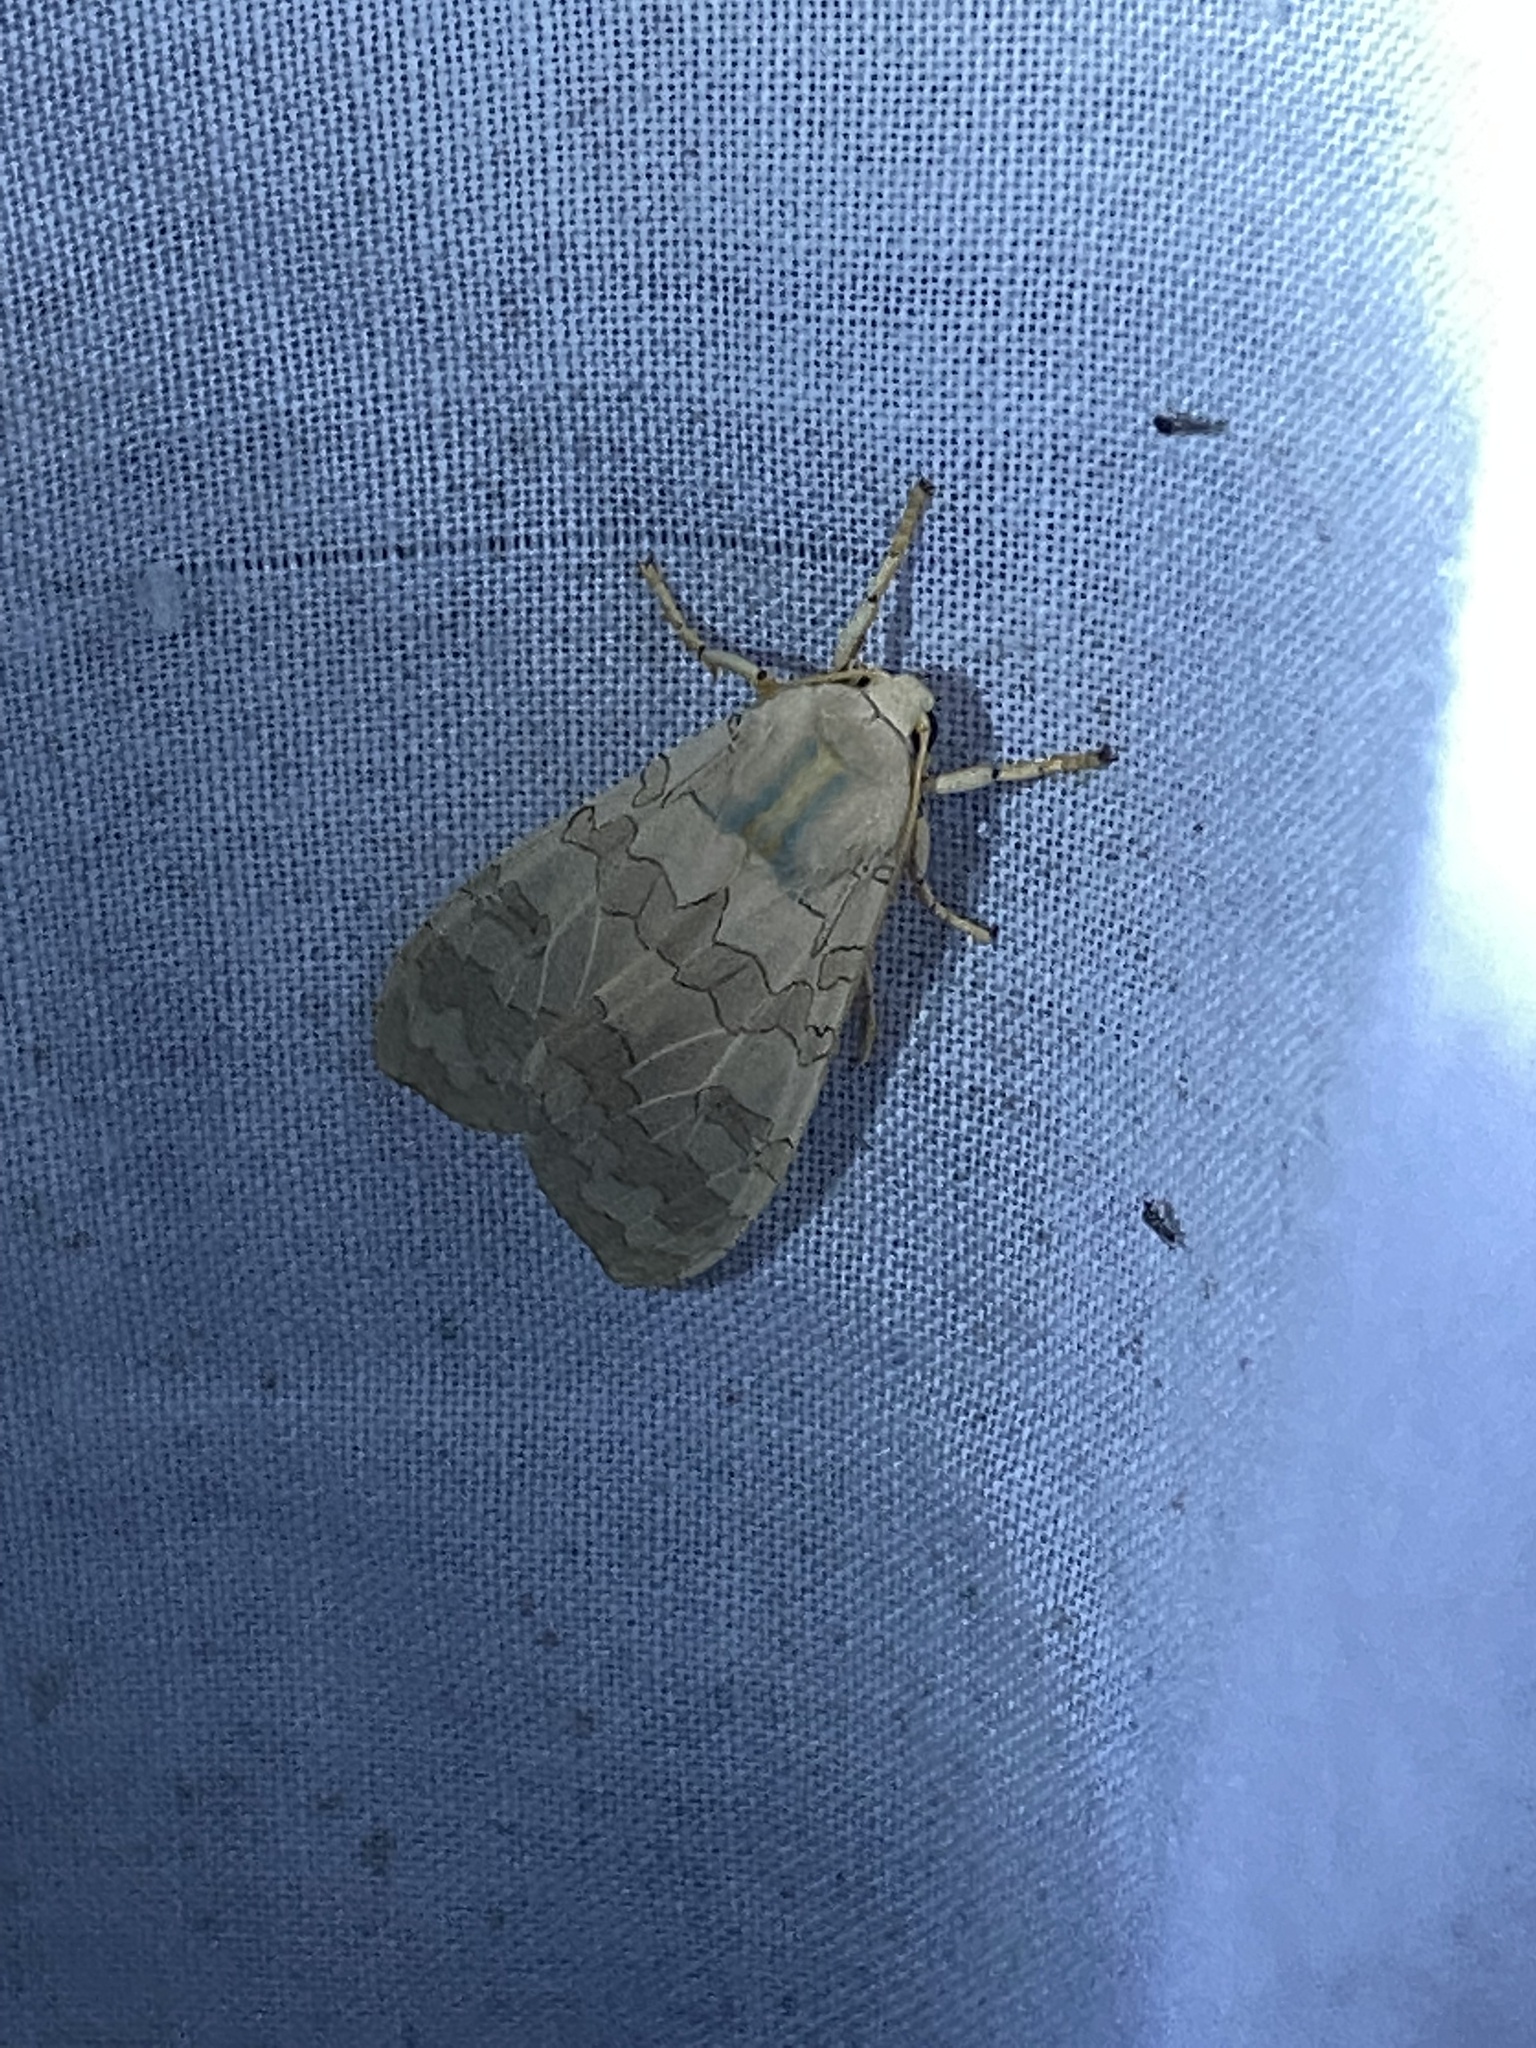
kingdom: Animalia
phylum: Arthropoda
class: Insecta
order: Lepidoptera
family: Erebidae
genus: Halysidota
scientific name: Halysidota tessellaris
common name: Banded tussock moth
